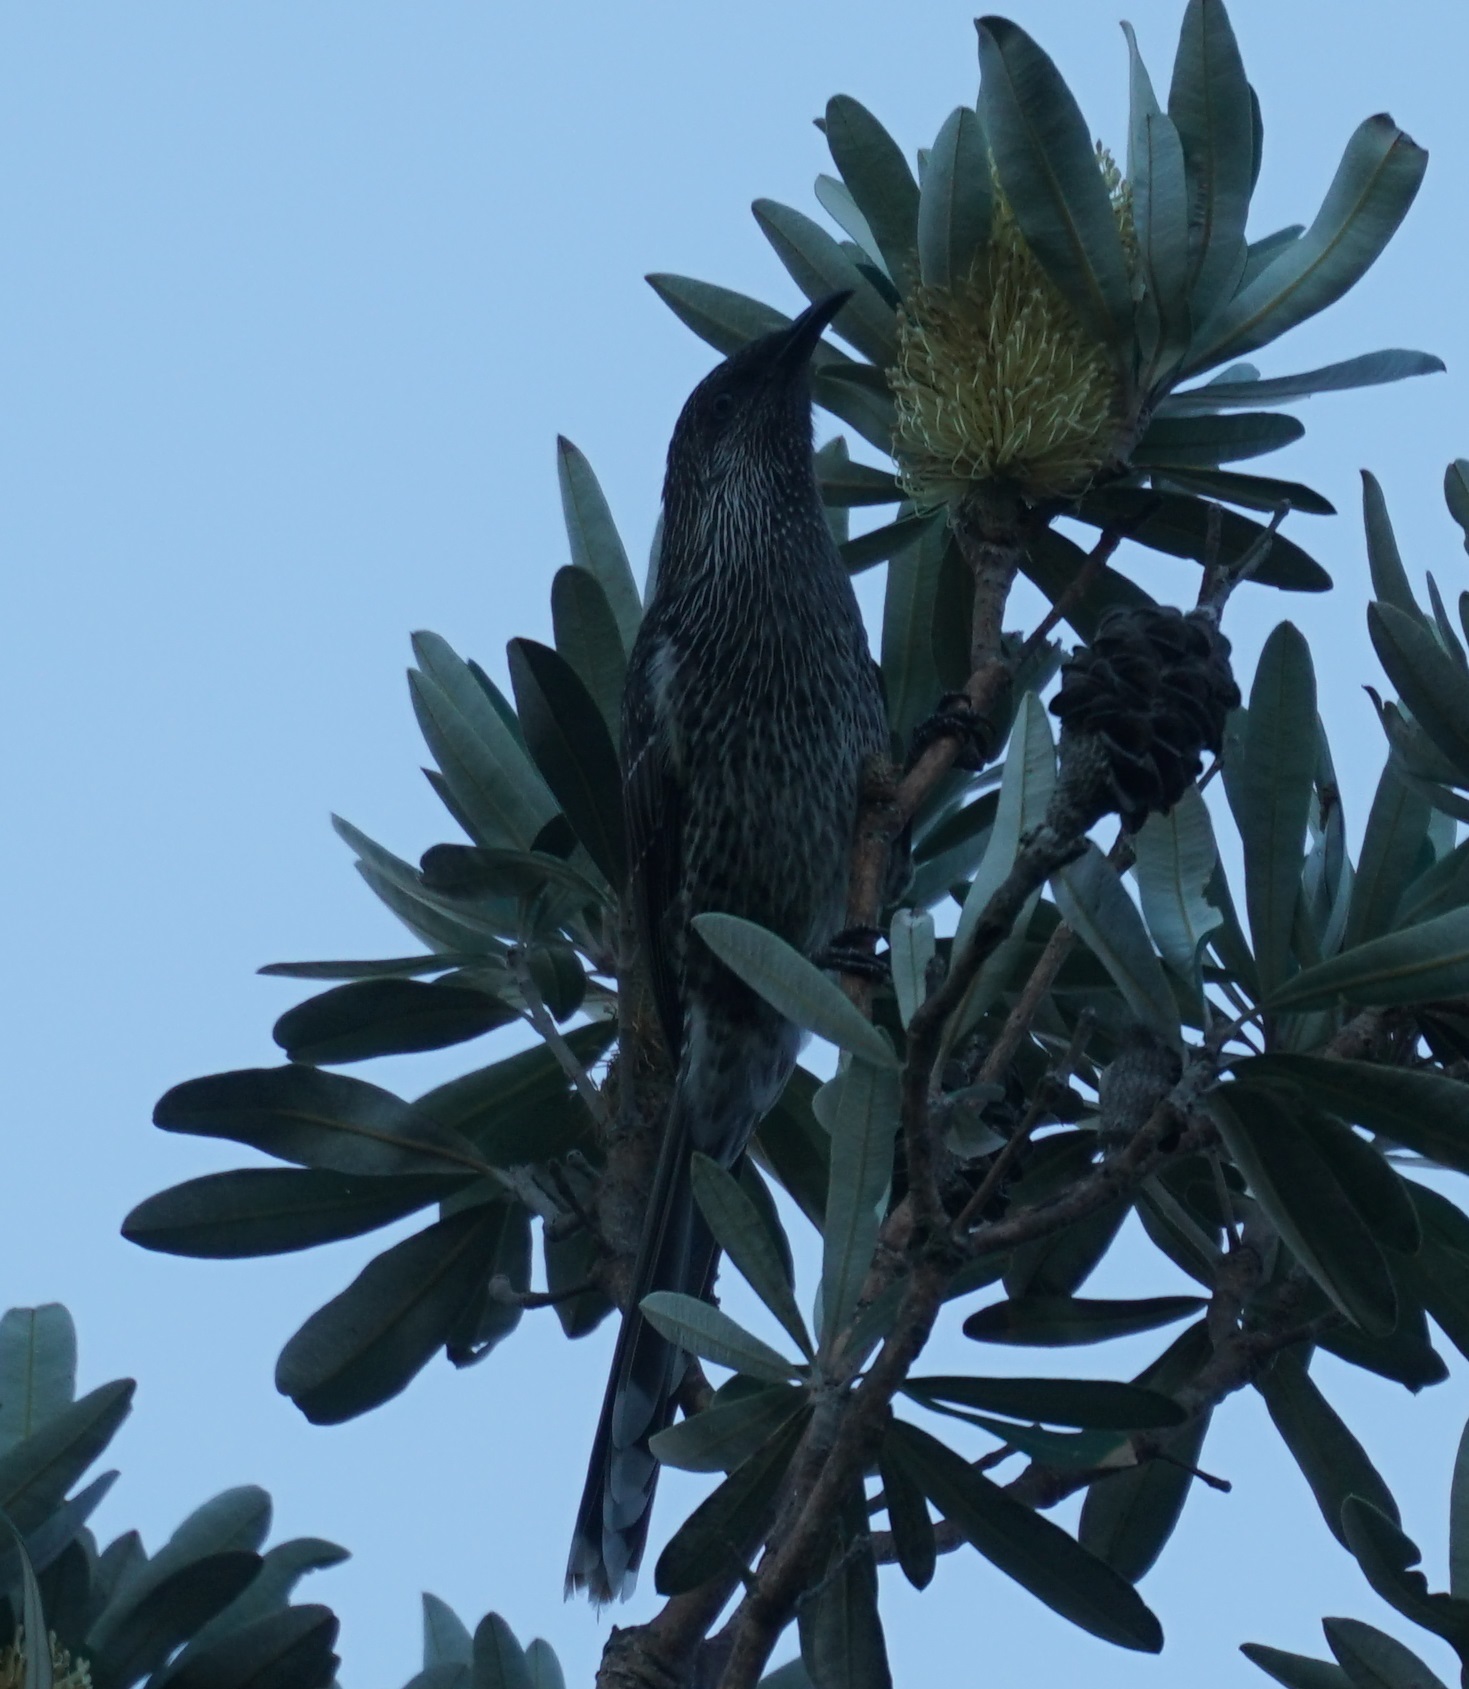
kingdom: Animalia
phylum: Chordata
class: Aves
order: Passeriformes
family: Meliphagidae
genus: Anthochaera
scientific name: Anthochaera chrysoptera
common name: Little wattlebird
